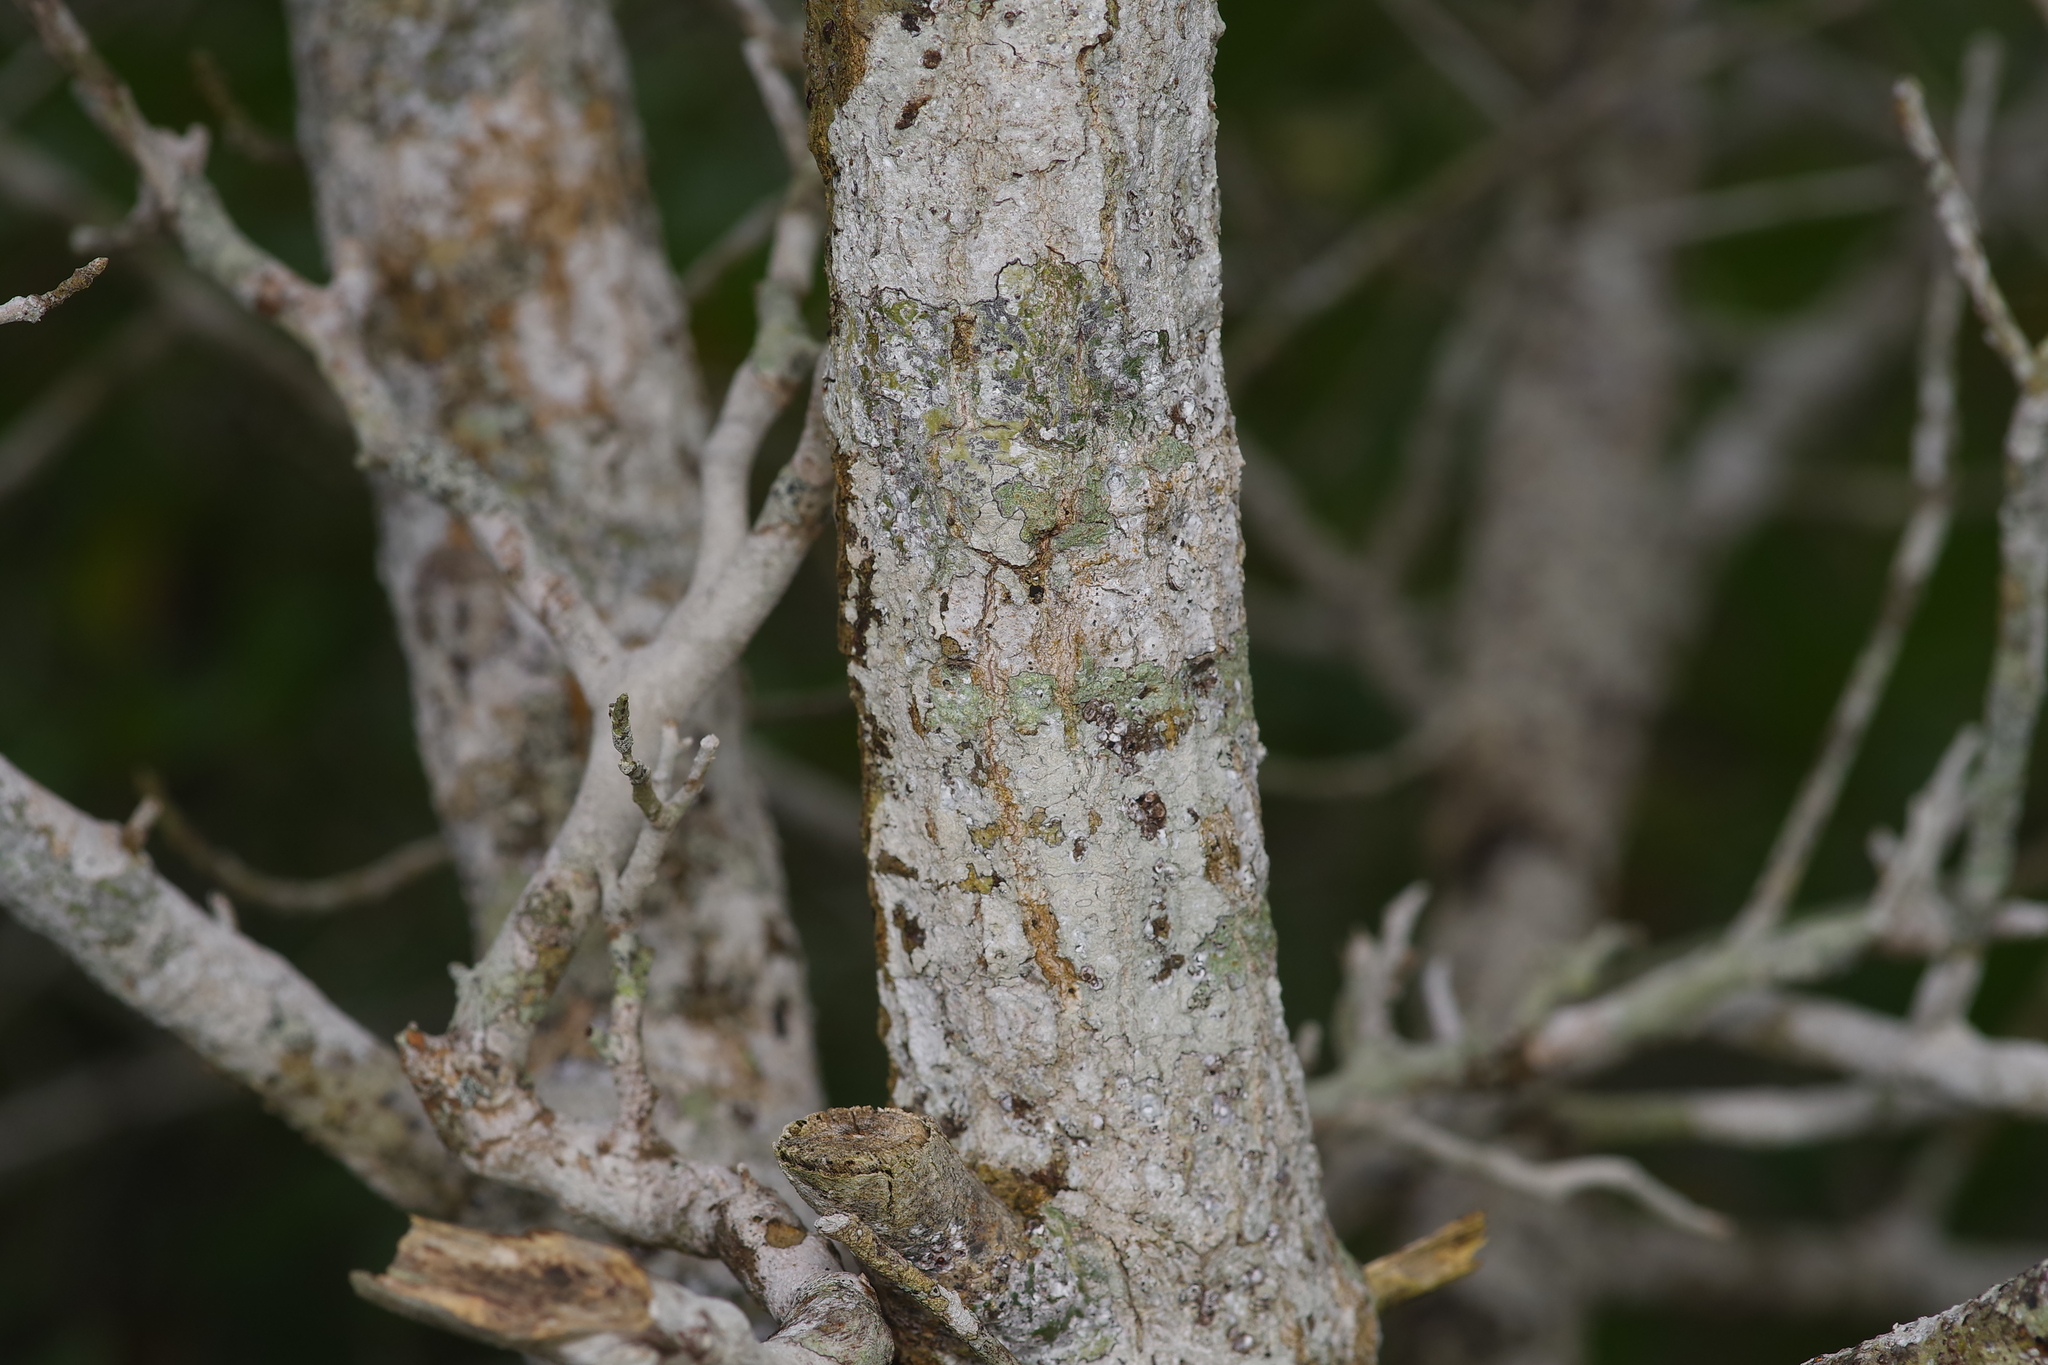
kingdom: Plantae
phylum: Tracheophyta
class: Magnoliopsida
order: Fagales
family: Fagaceae
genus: Quercus
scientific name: Quercus laurifolia
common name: Swamp laurel oak
